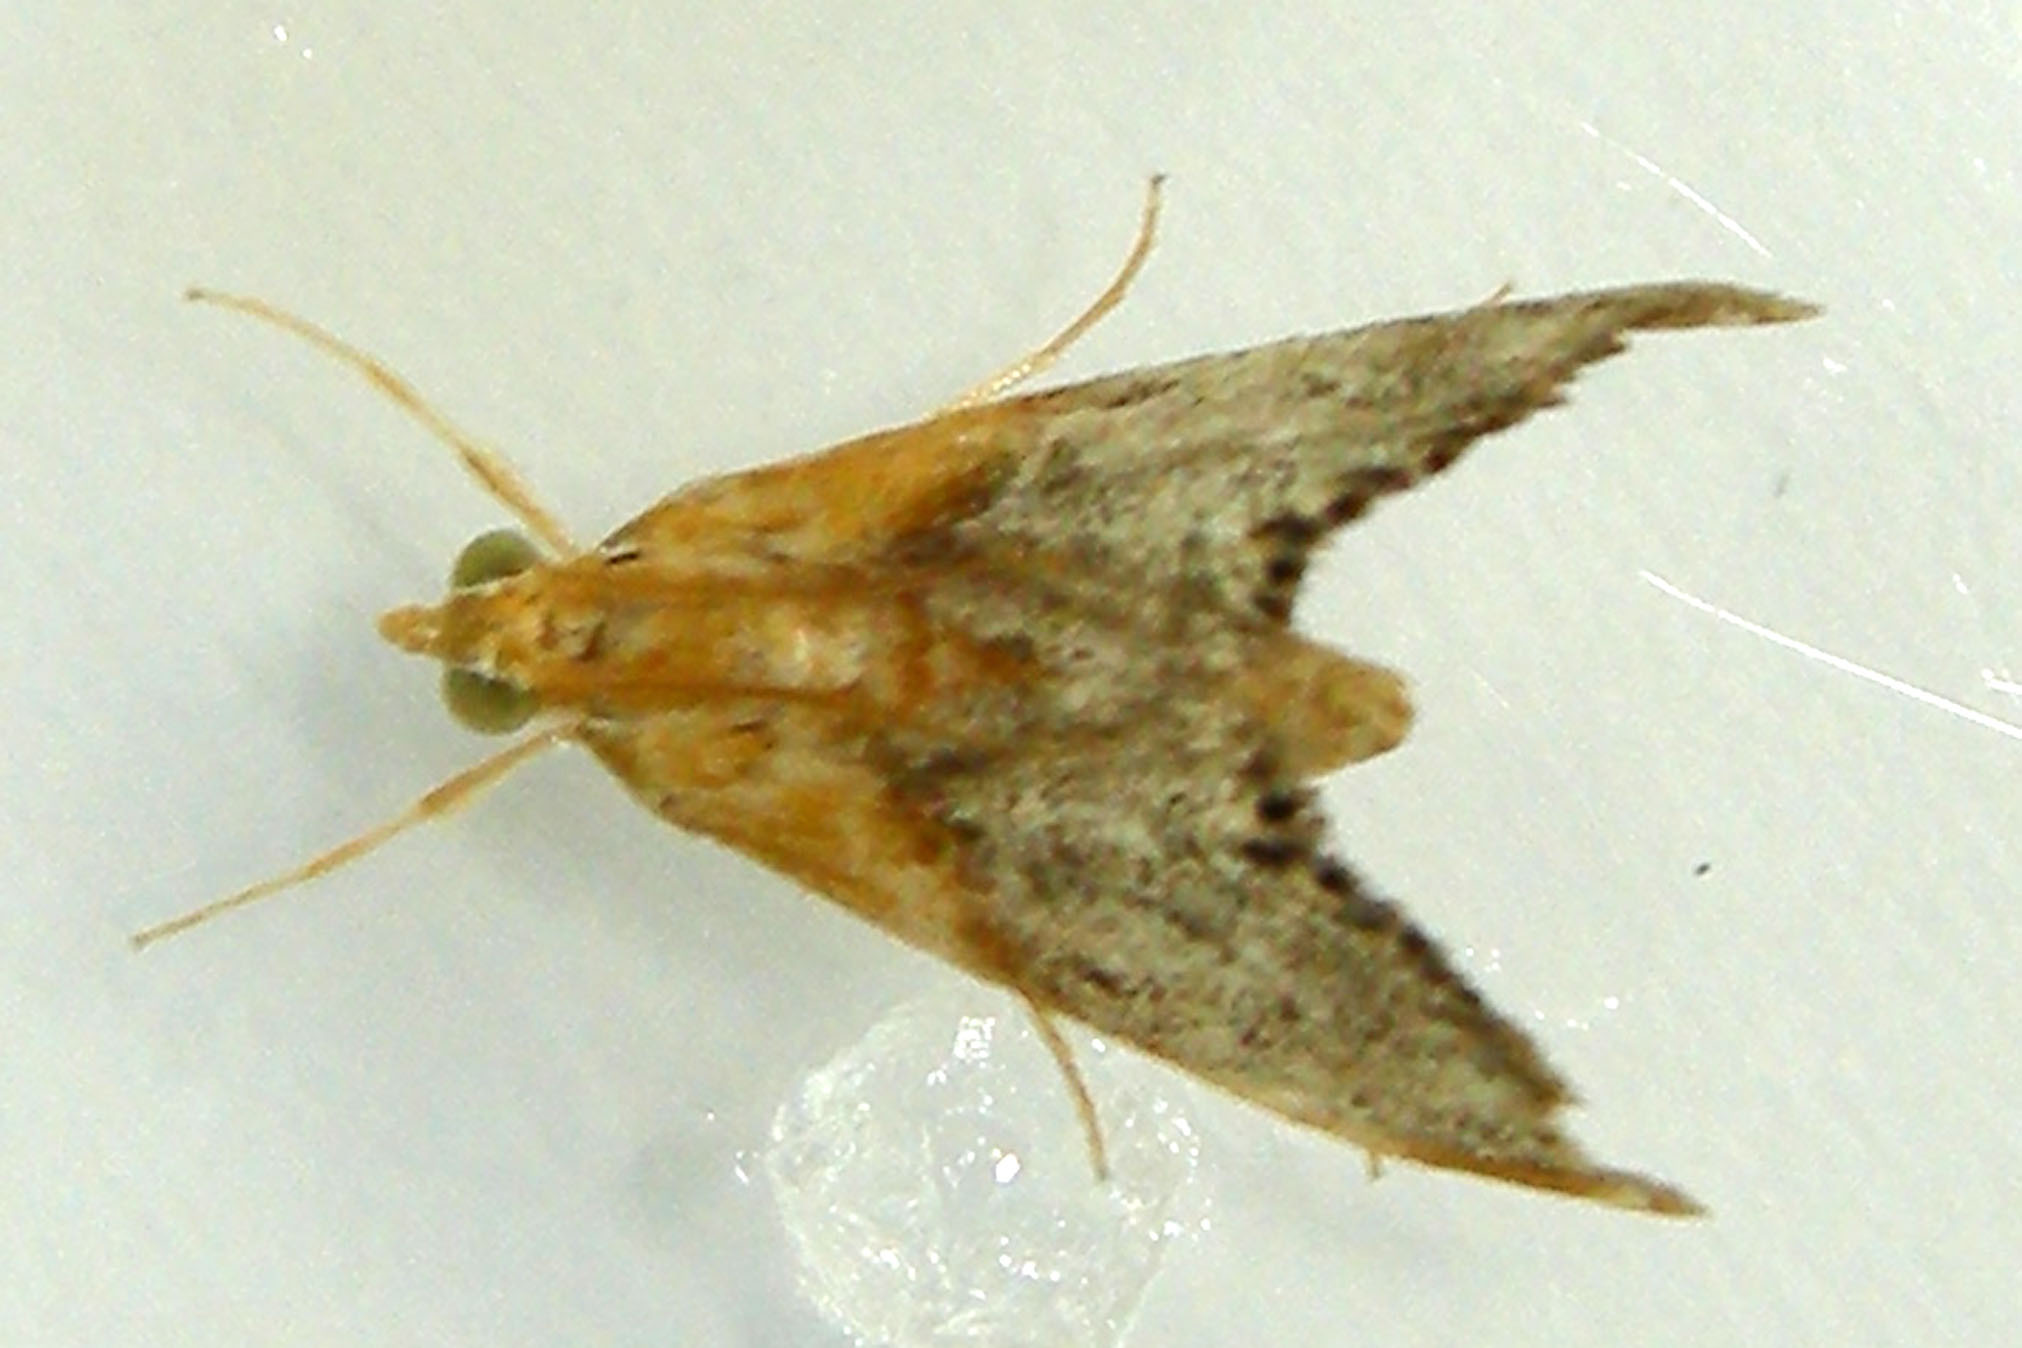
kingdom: Animalia
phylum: Arthropoda
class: Insecta
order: Lepidoptera
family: Crambidae
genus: Chalcoela
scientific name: Chalcoela iphitalis
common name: Sooty-winged chalcoela moth
